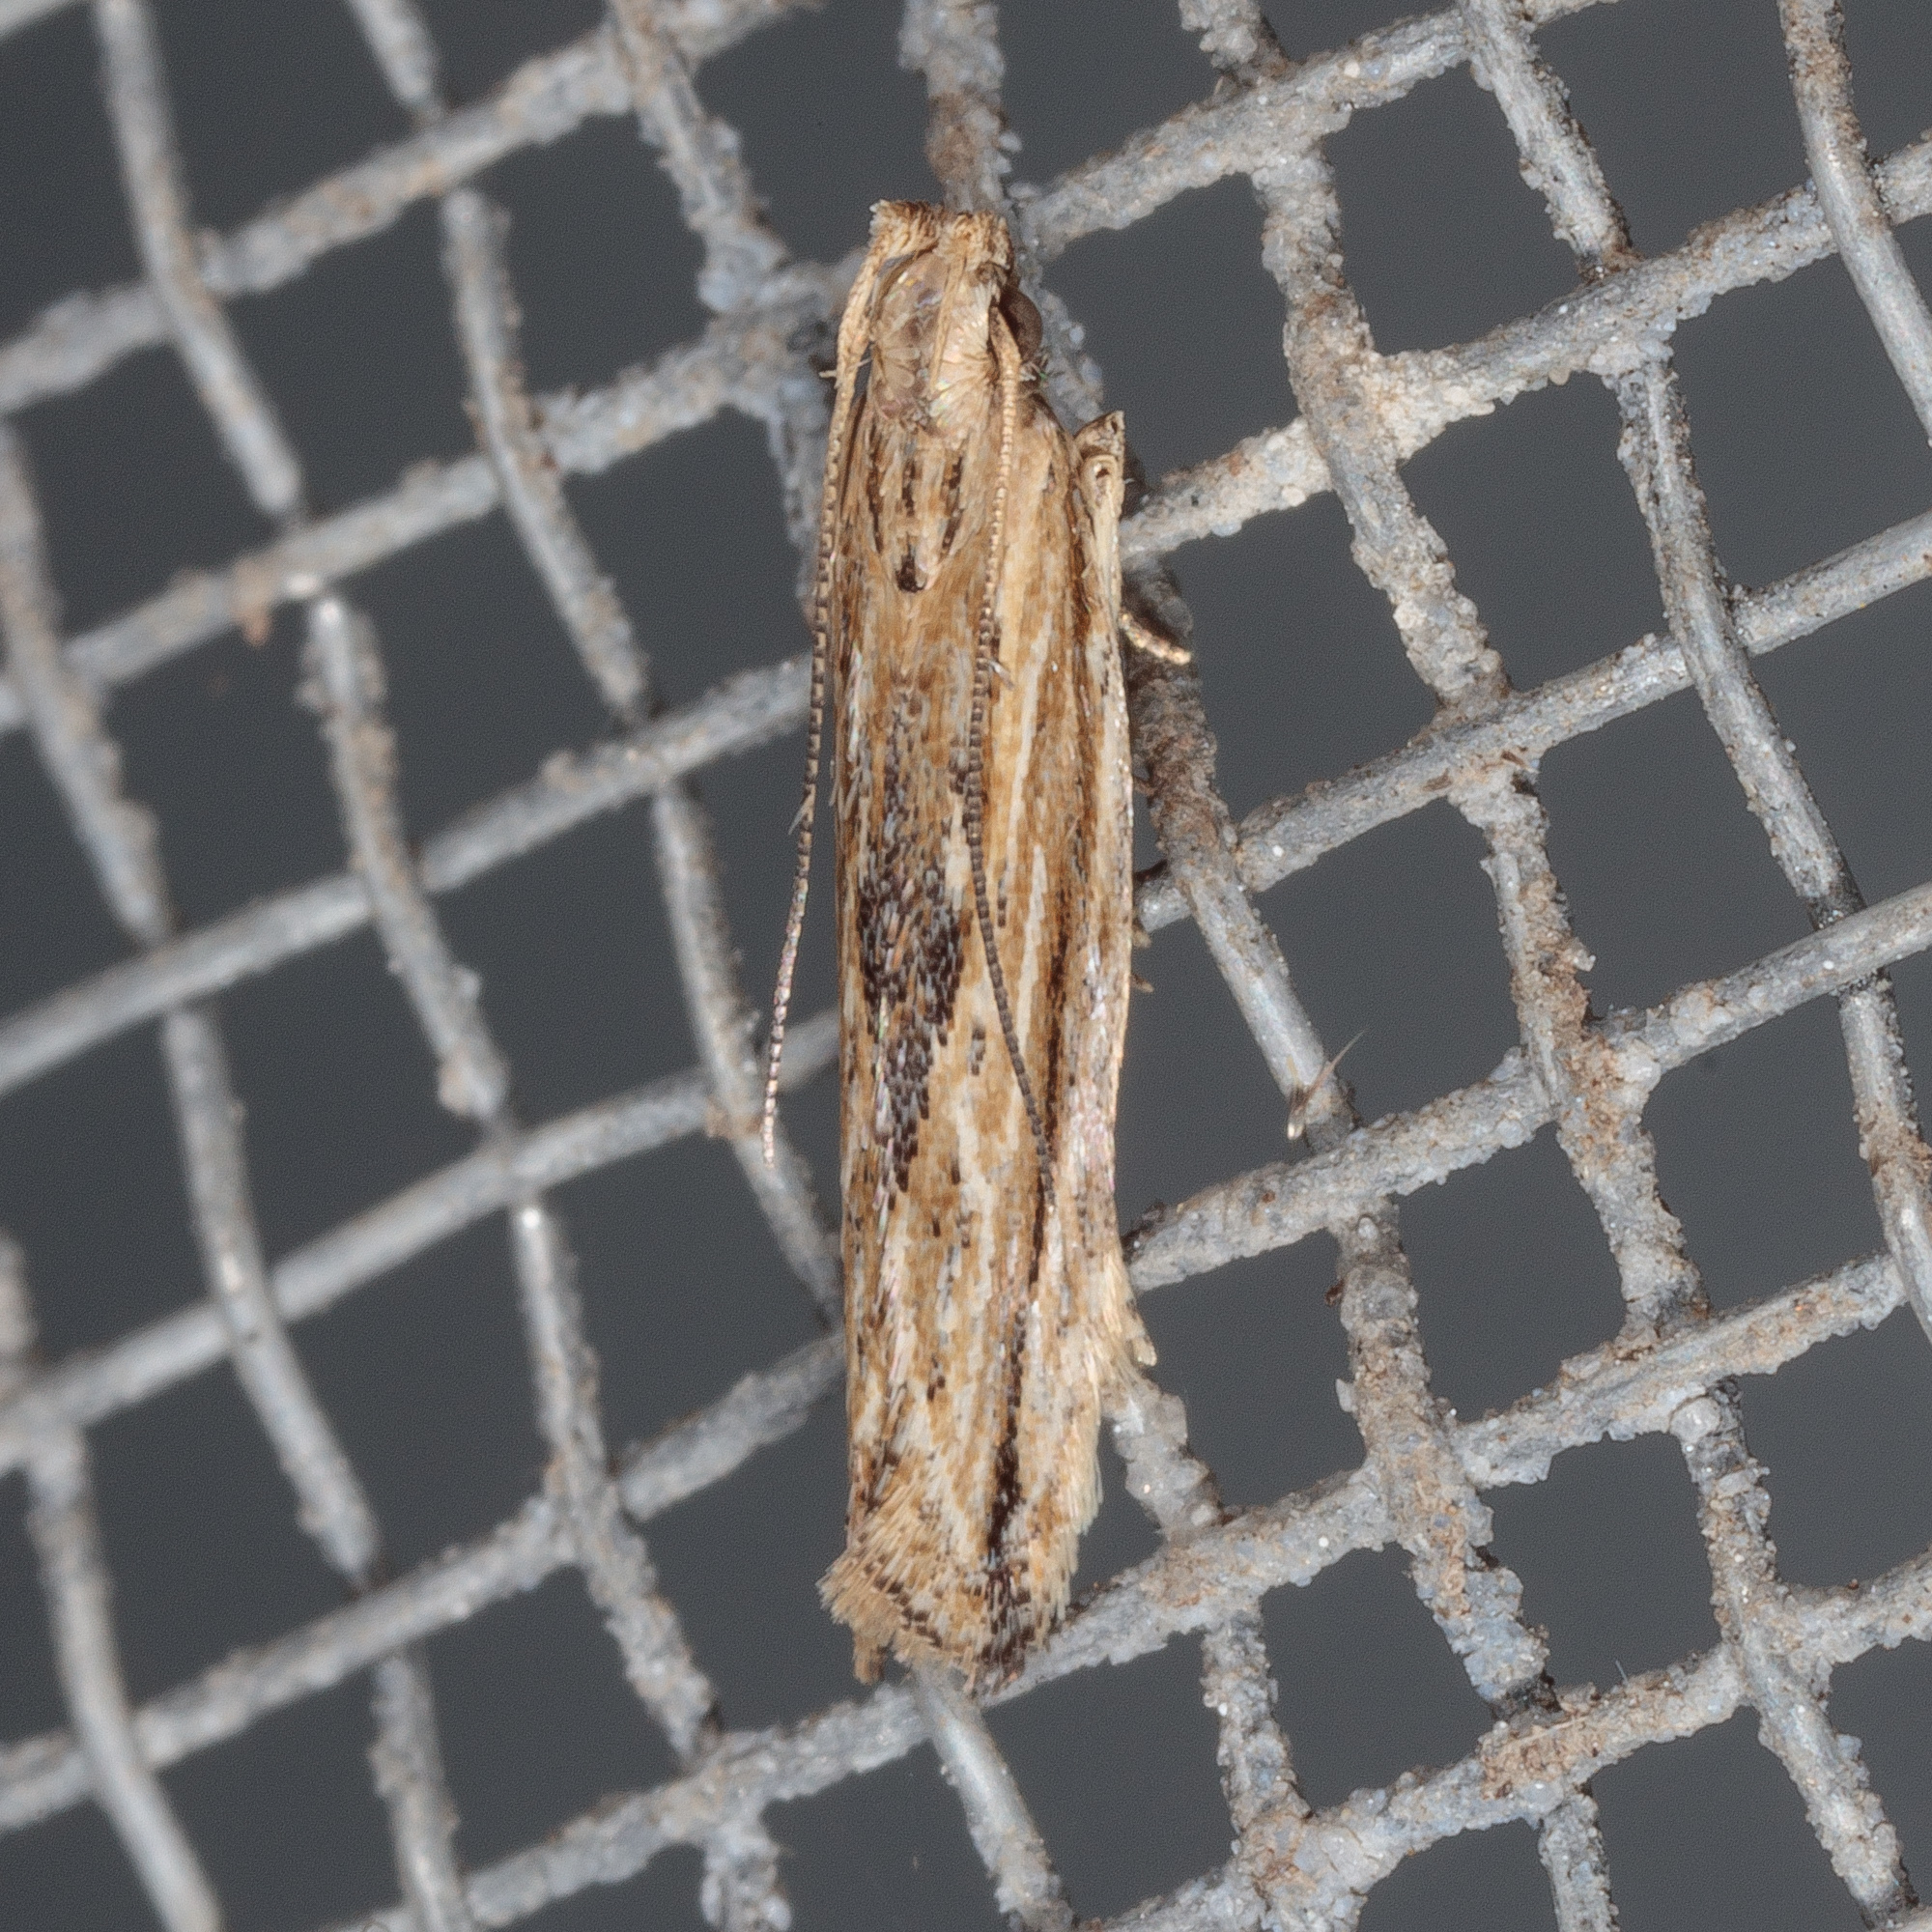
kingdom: Animalia
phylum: Arthropoda
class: Insecta
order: Lepidoptera
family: Gelechiidae
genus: Symmetrischema
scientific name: Symmetrischema striatella
